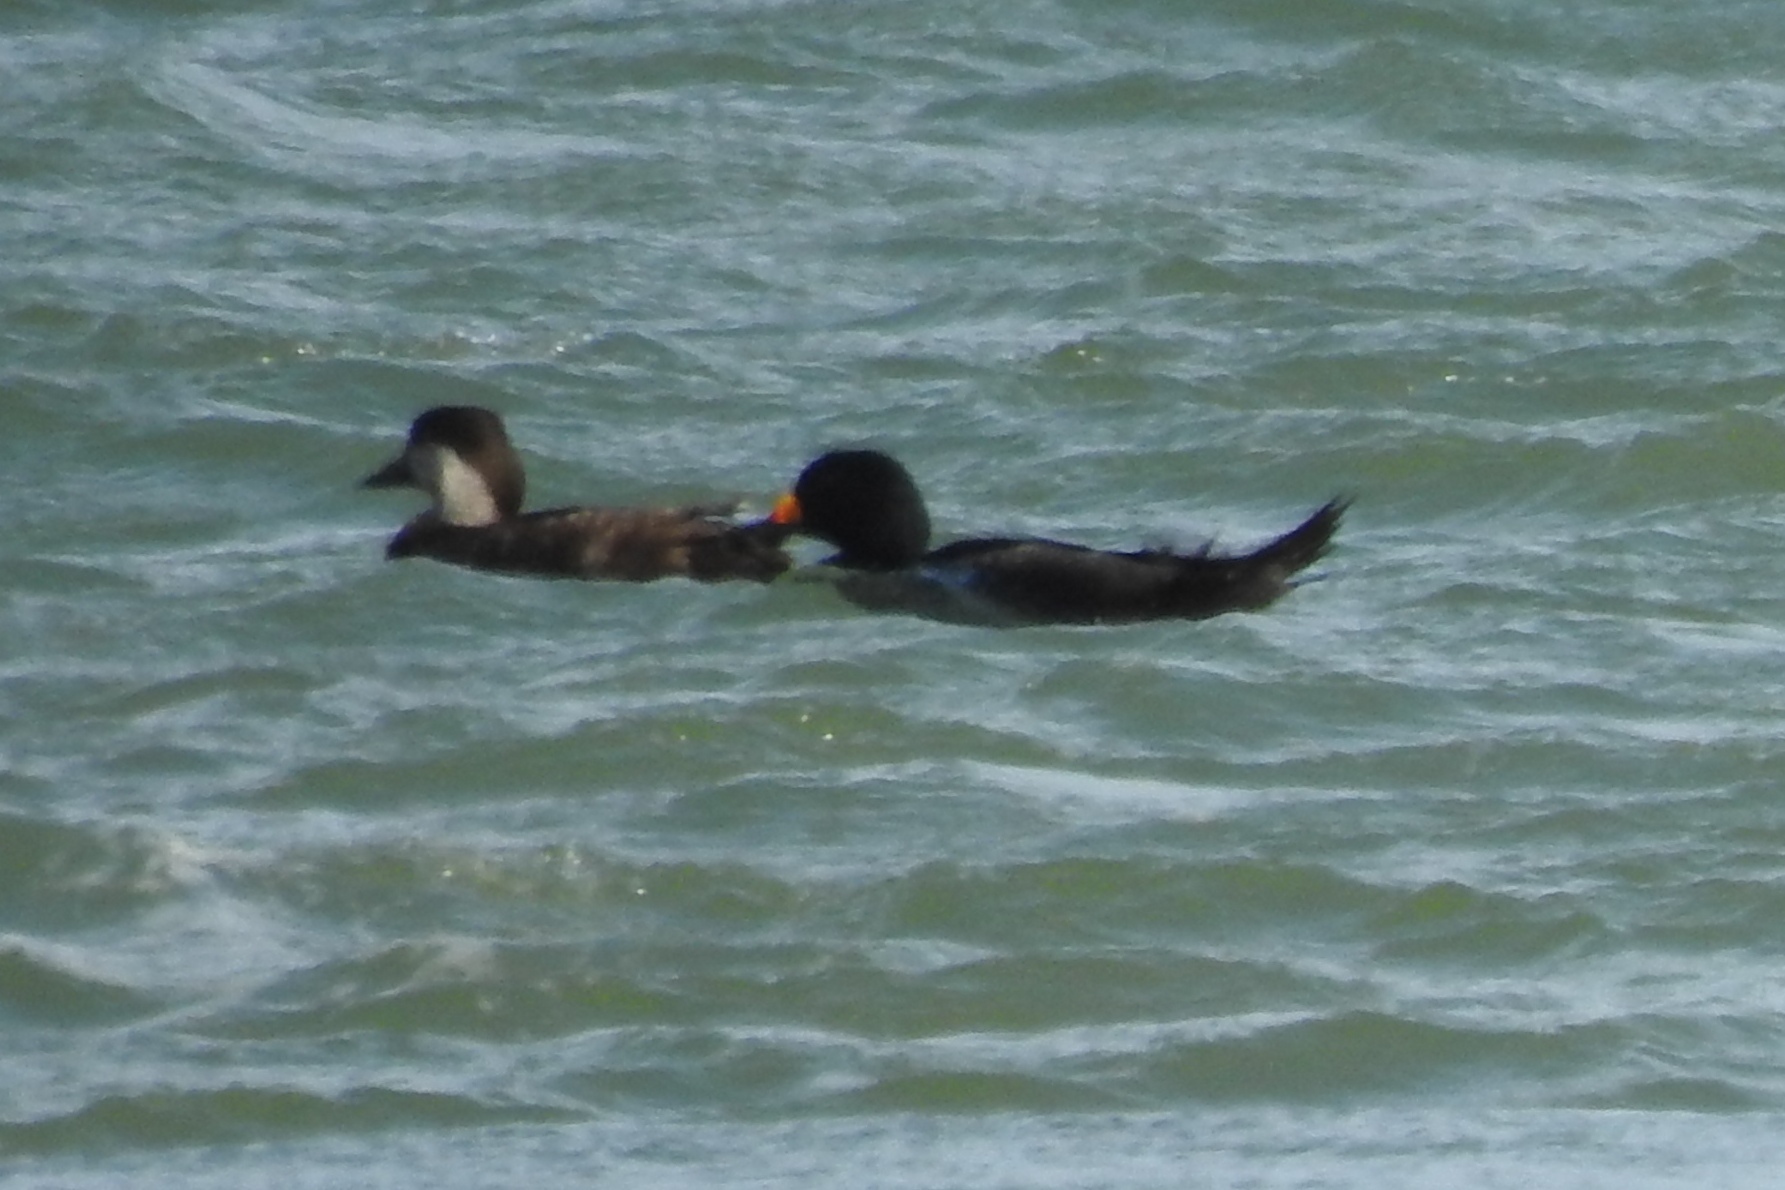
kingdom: Animalia
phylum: Chordata
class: Aves
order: Anseriformes
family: Anatidae
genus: Melanitta
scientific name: Melanitta americana
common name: Black scoter
